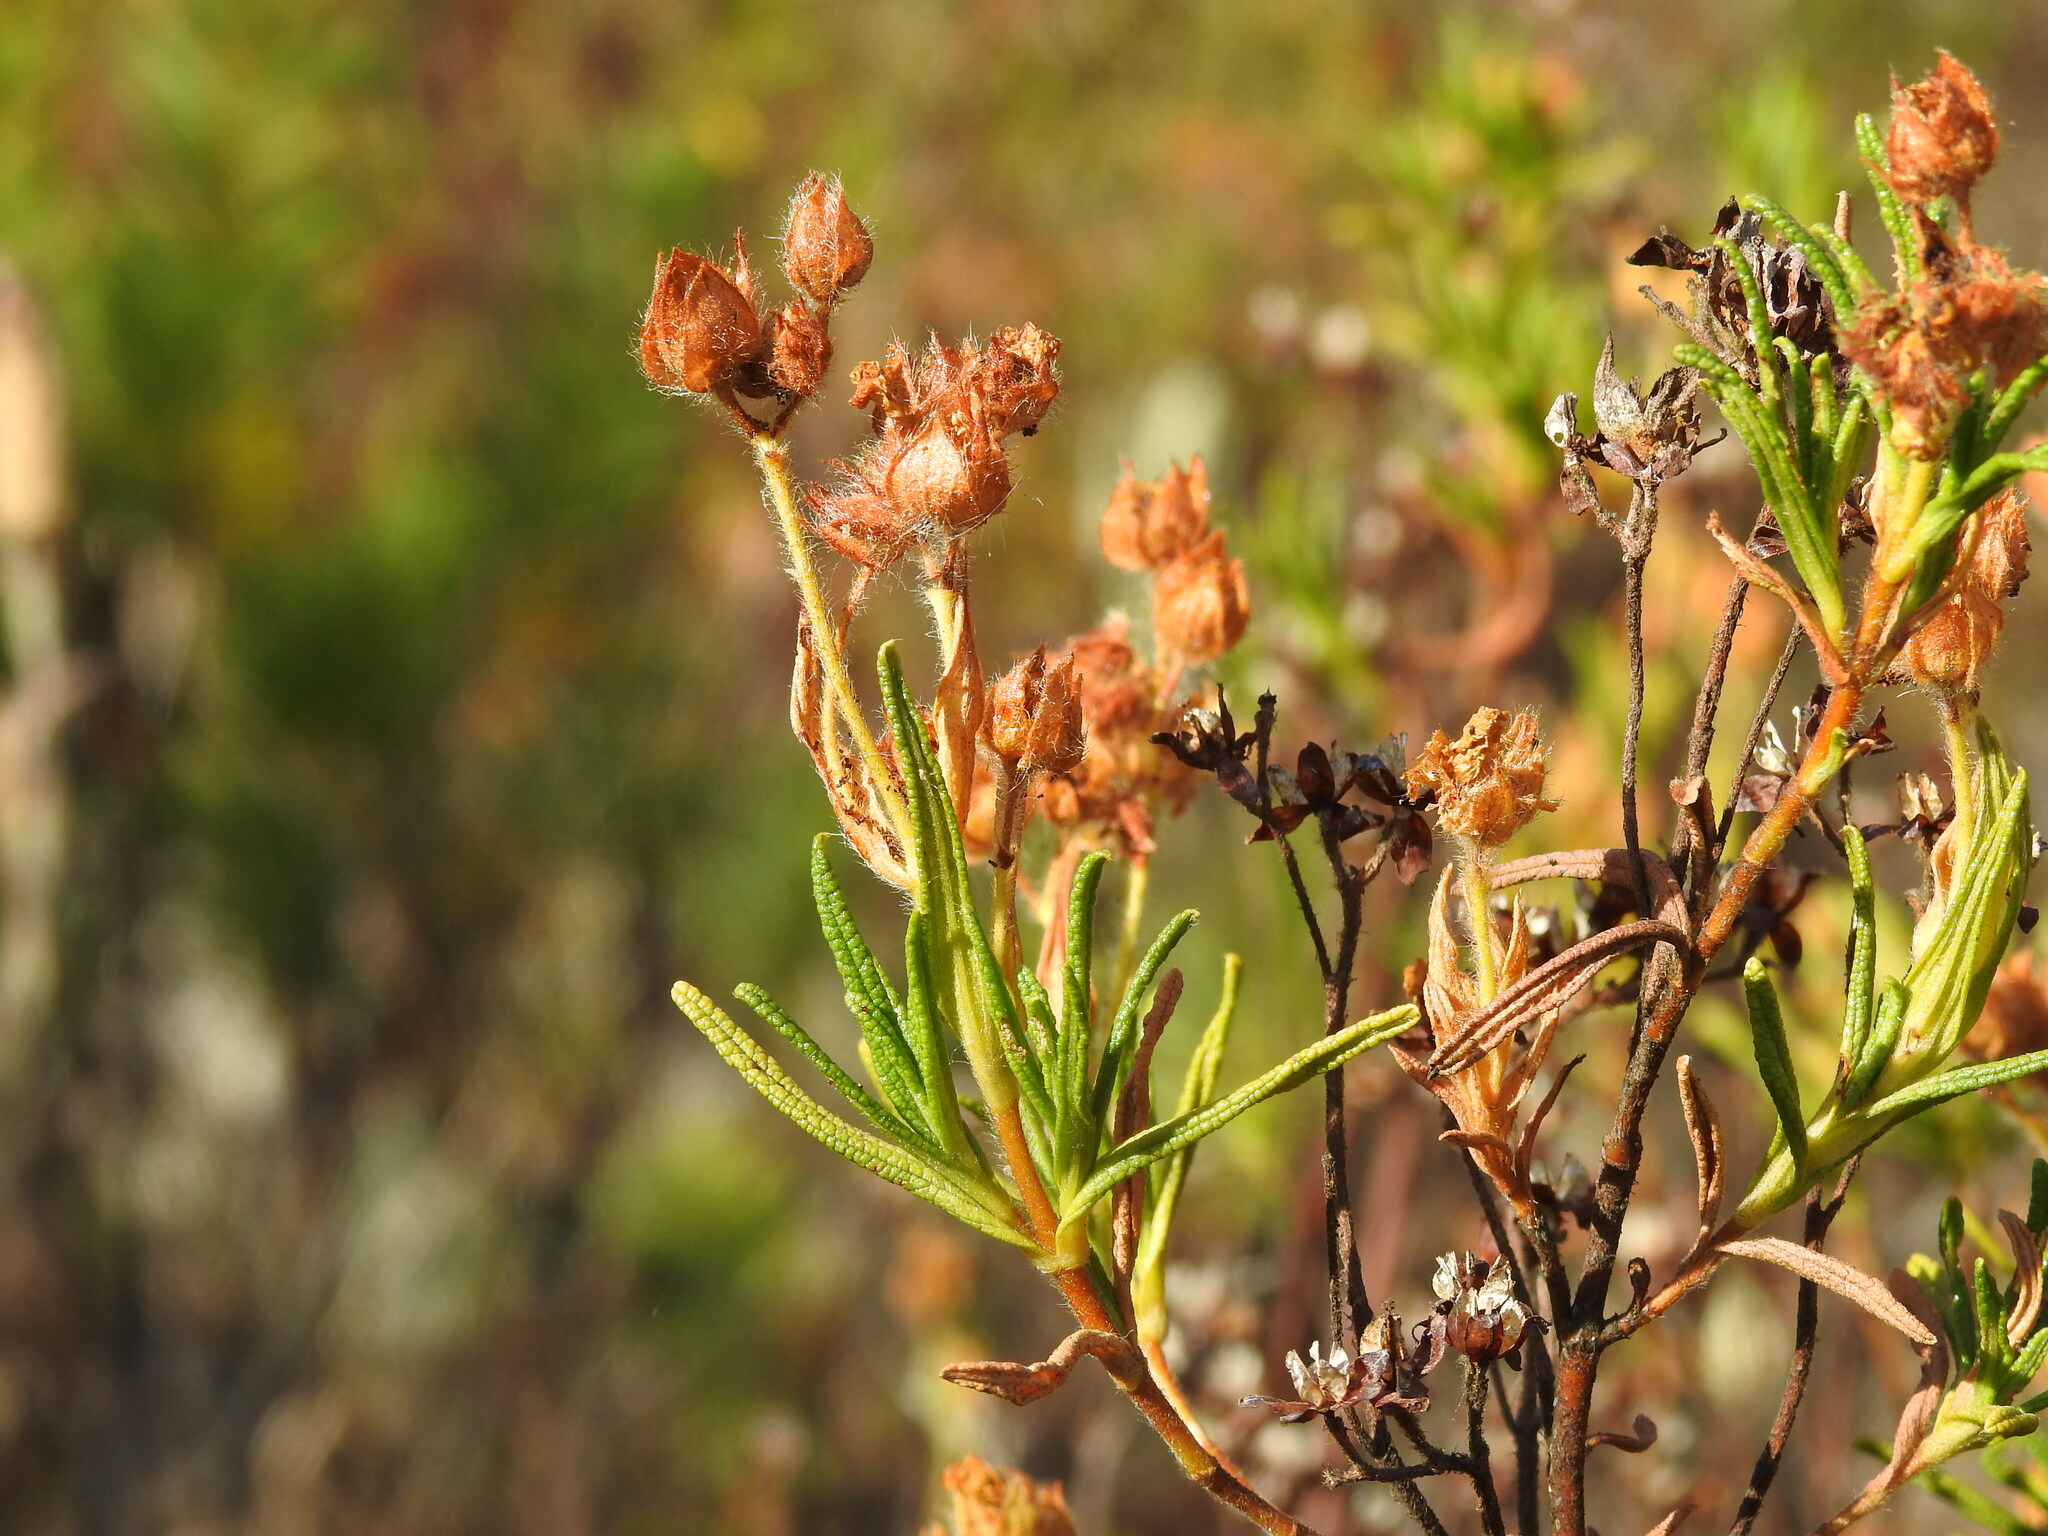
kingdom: Plantae
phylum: Tracheophyta
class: Magnoliopsida
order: Malvales
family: Cistaceae
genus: Cistus
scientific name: Cistus monspeliensis
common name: Montpelier cistus
